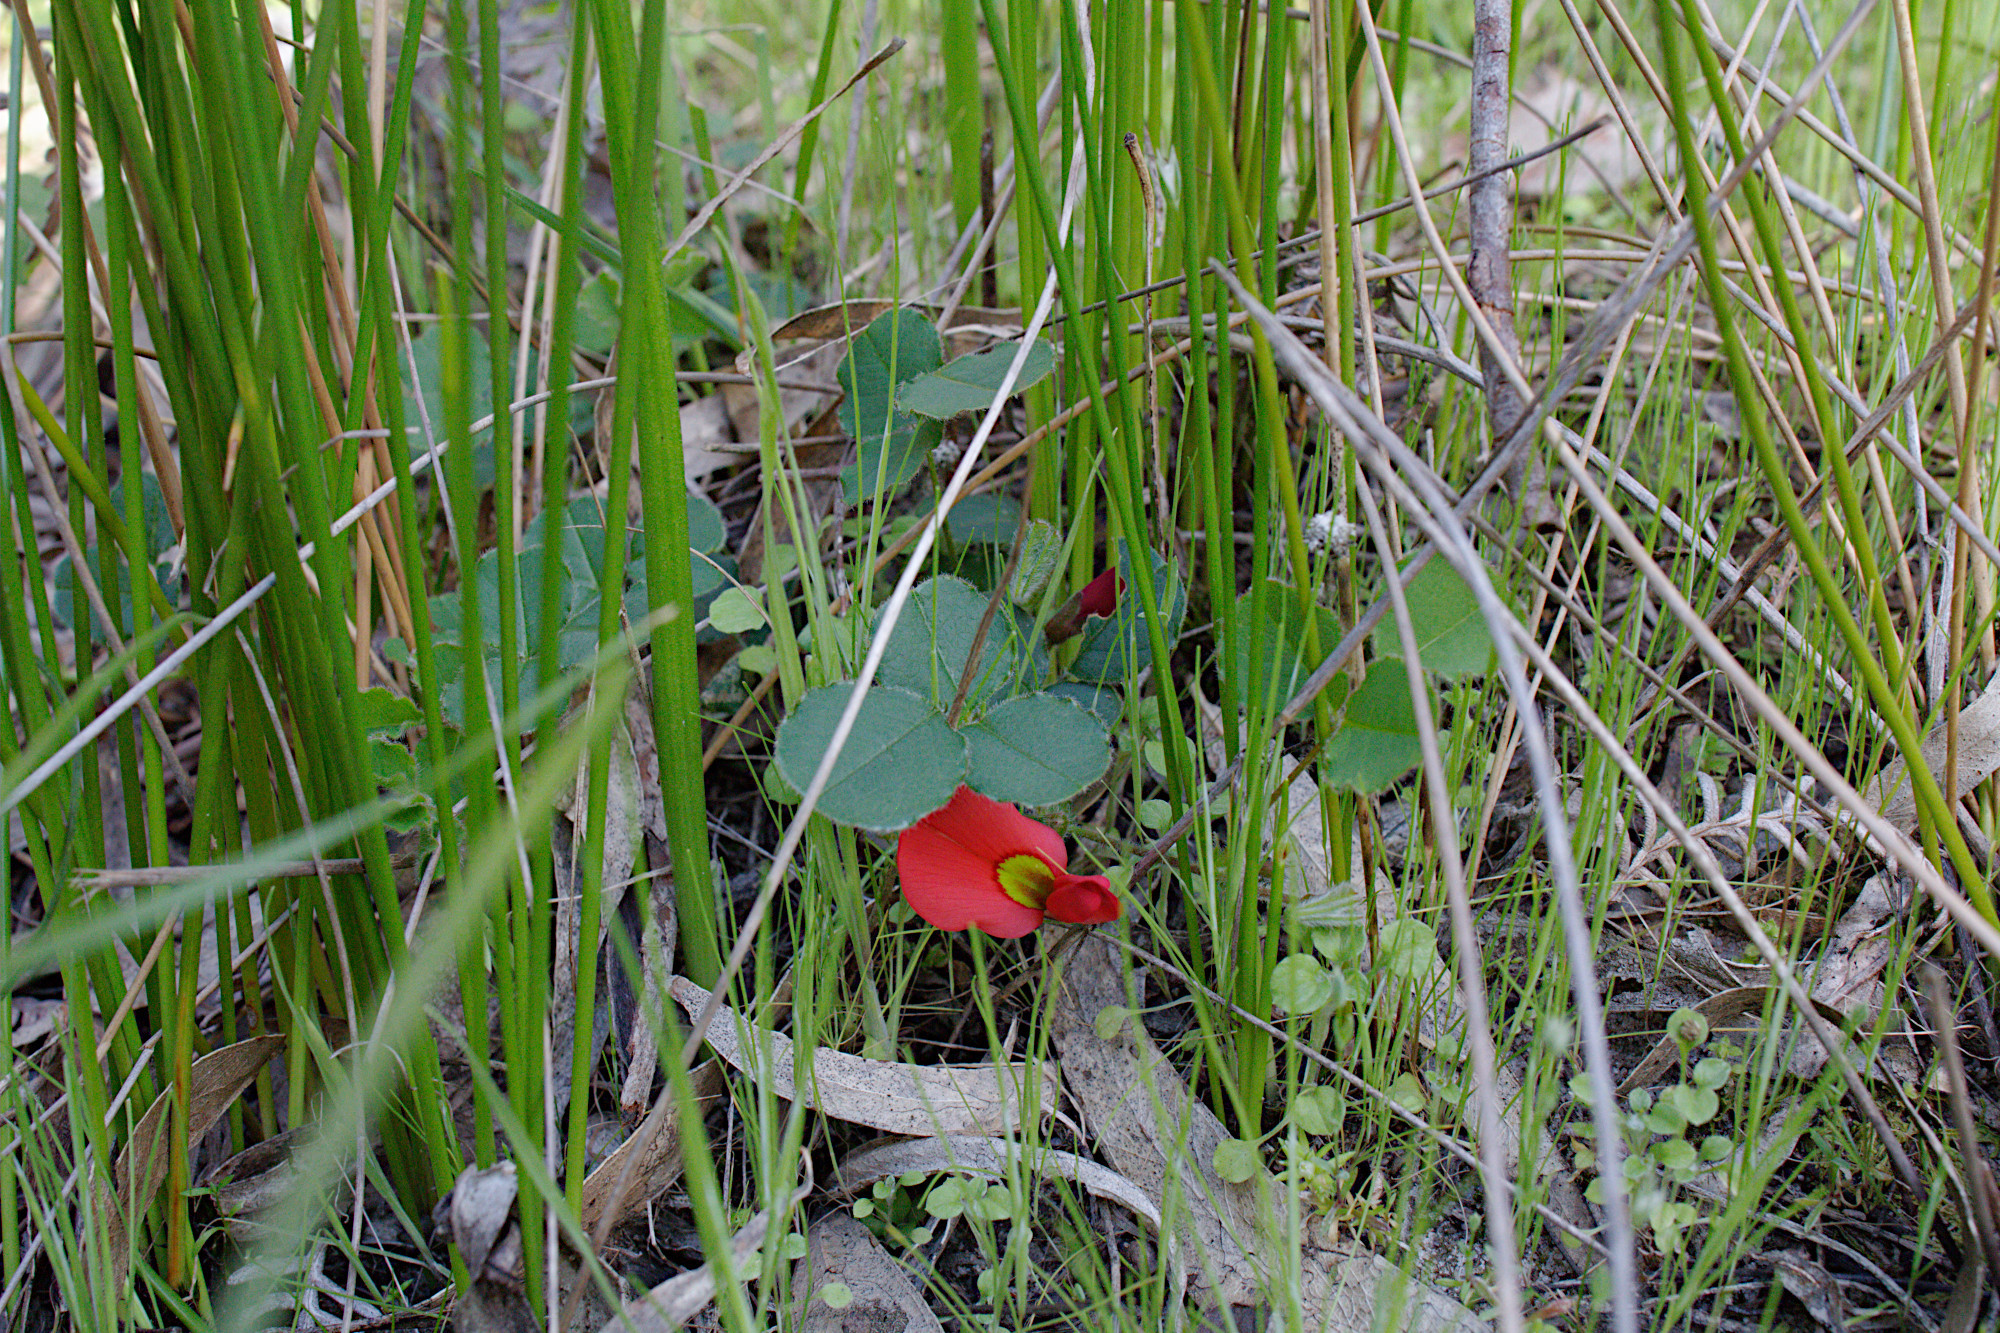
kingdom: Plantae
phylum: Tracheophyta
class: Magnoliopsida
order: Fabales
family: Fabaceae
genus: Kennedia
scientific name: Kennedia prostrata
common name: Running-postman
